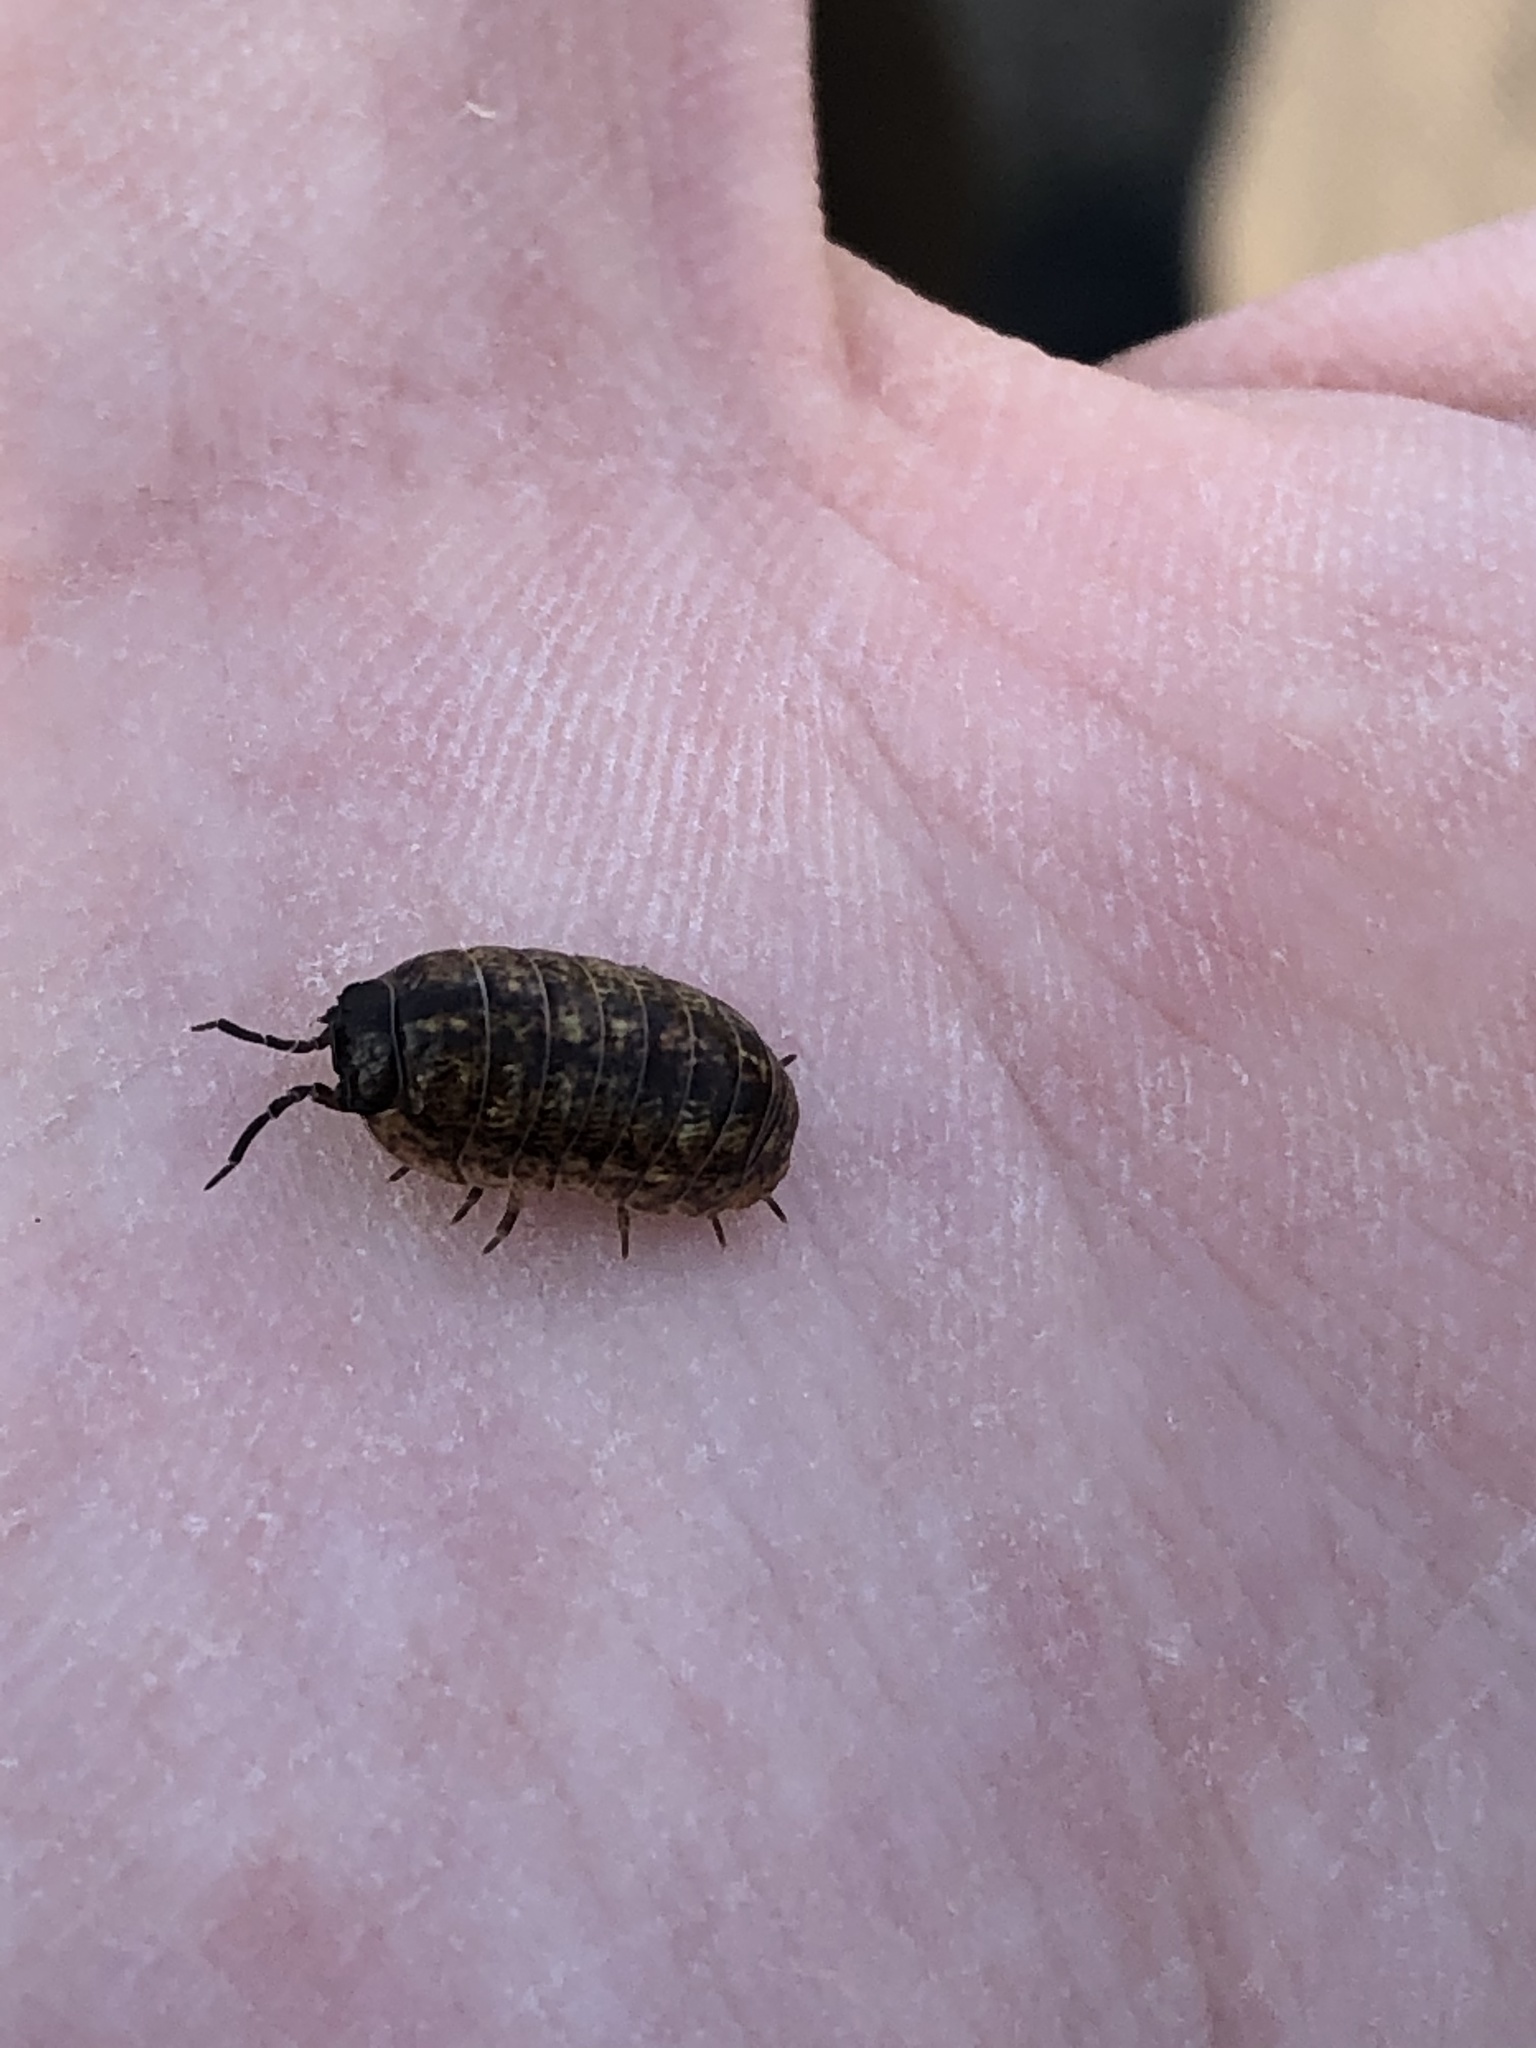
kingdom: Animalia
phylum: Arthropoda
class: Malacostraca
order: Isopoda
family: Armadillidiidae
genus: Armadillidium
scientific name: Armadillidium vulgare
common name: Common pill woodlouse
